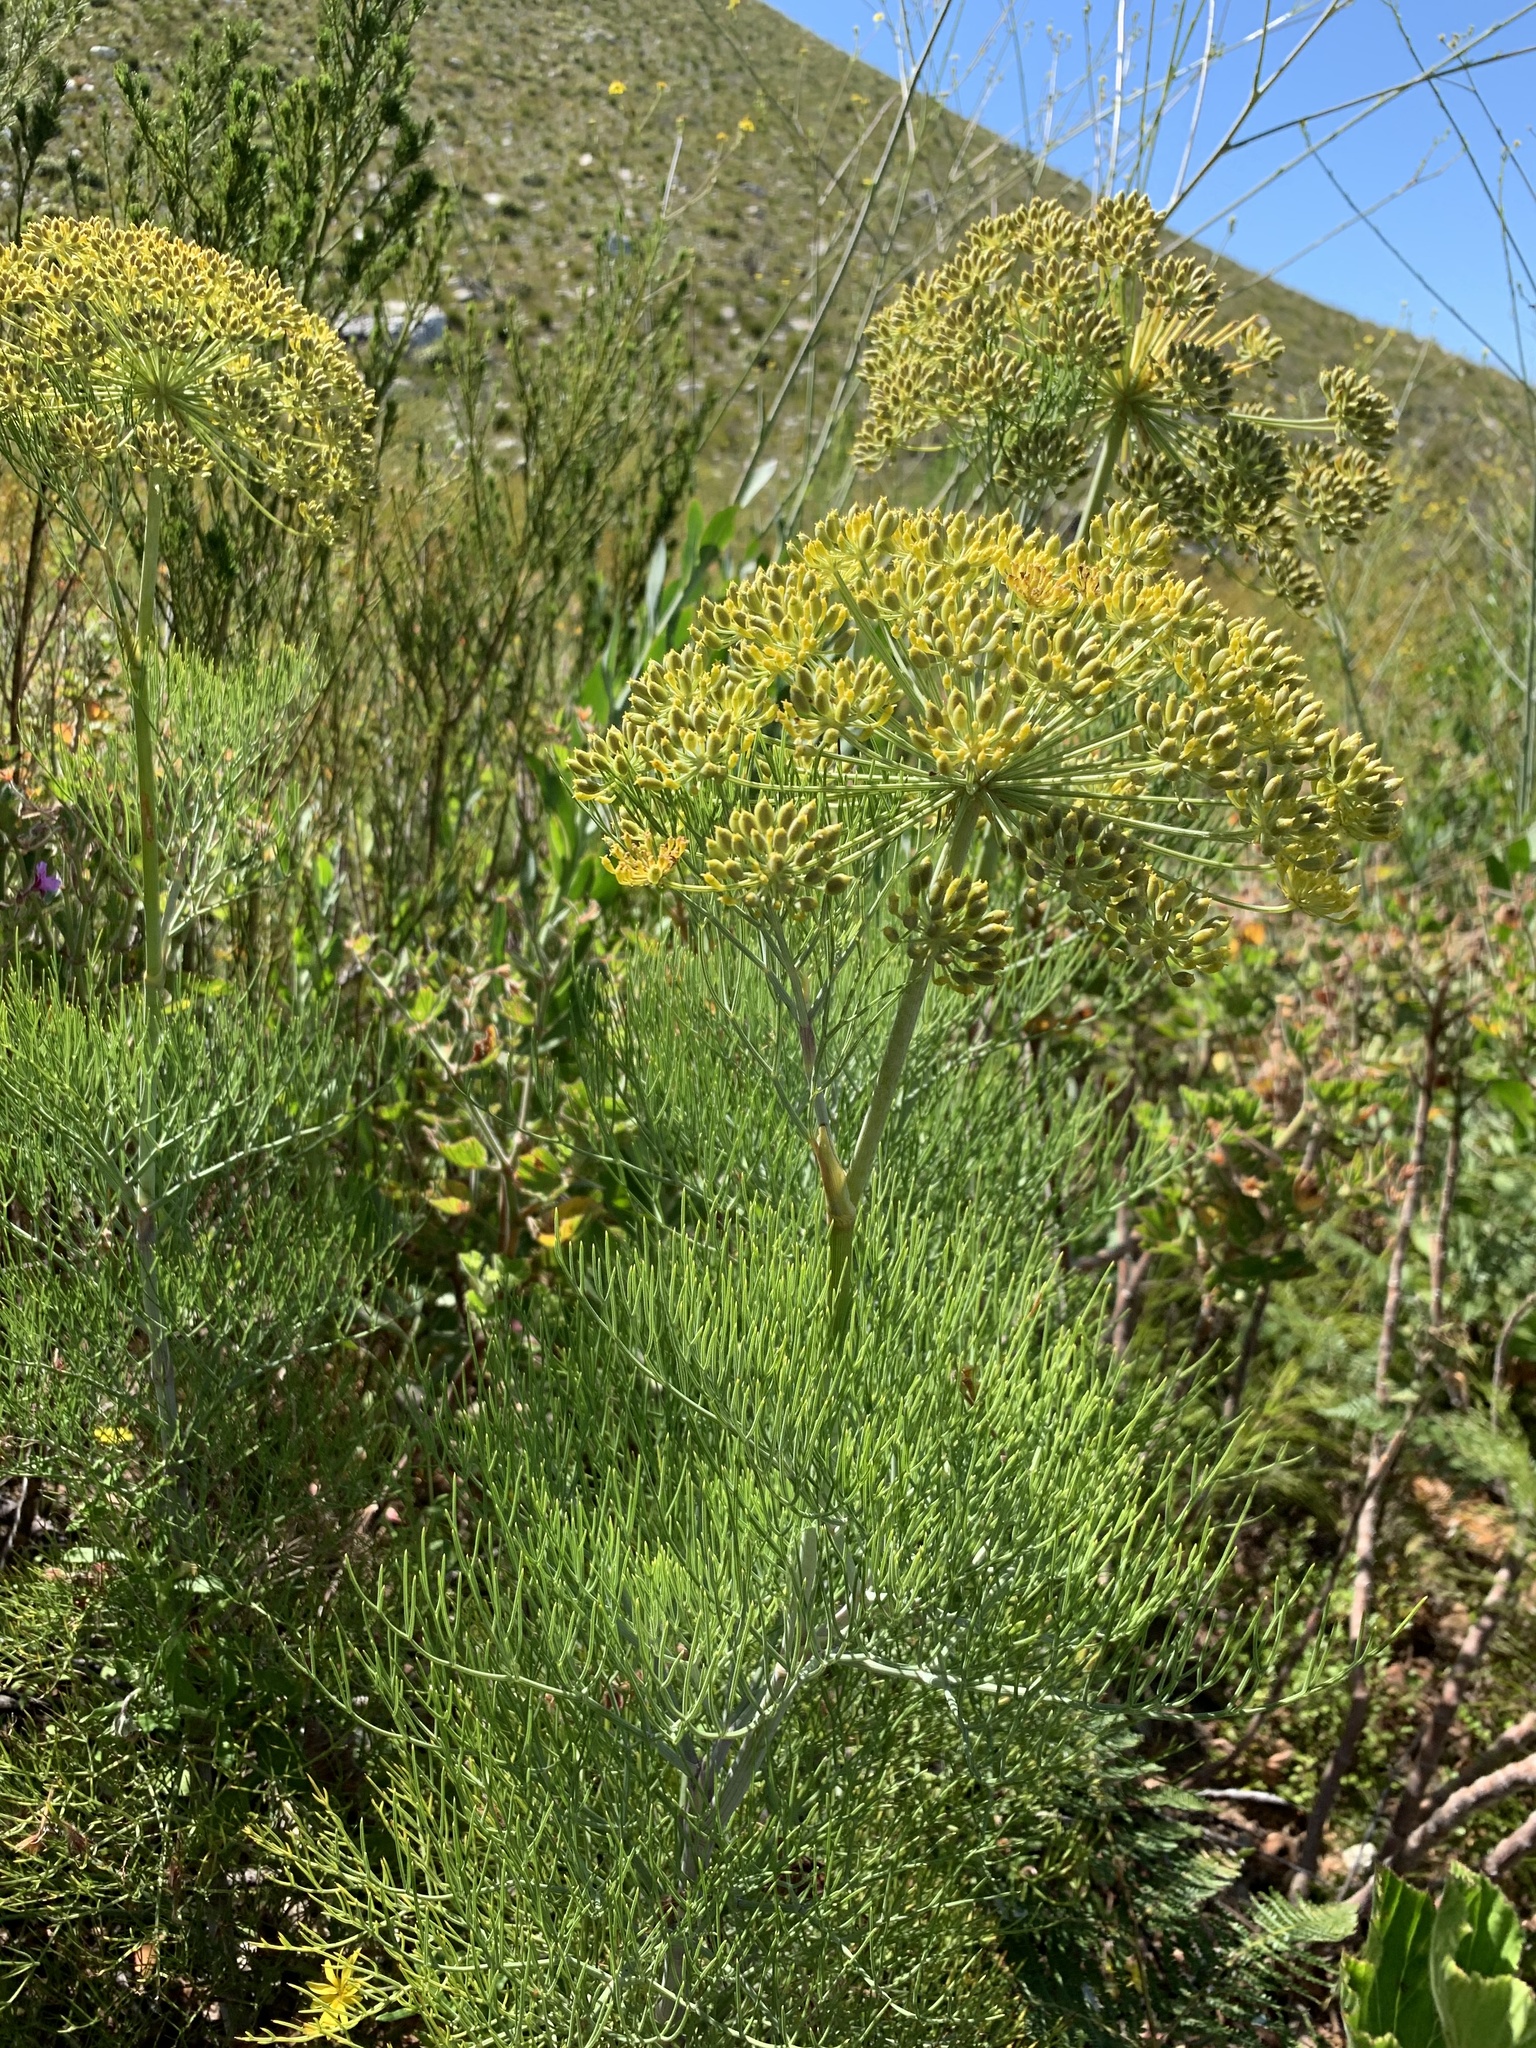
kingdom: Plantae
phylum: Tracheophyta
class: Magnoliopsida
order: Apiales
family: Apiaceae
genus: Notobubon
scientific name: Notobubon capense
